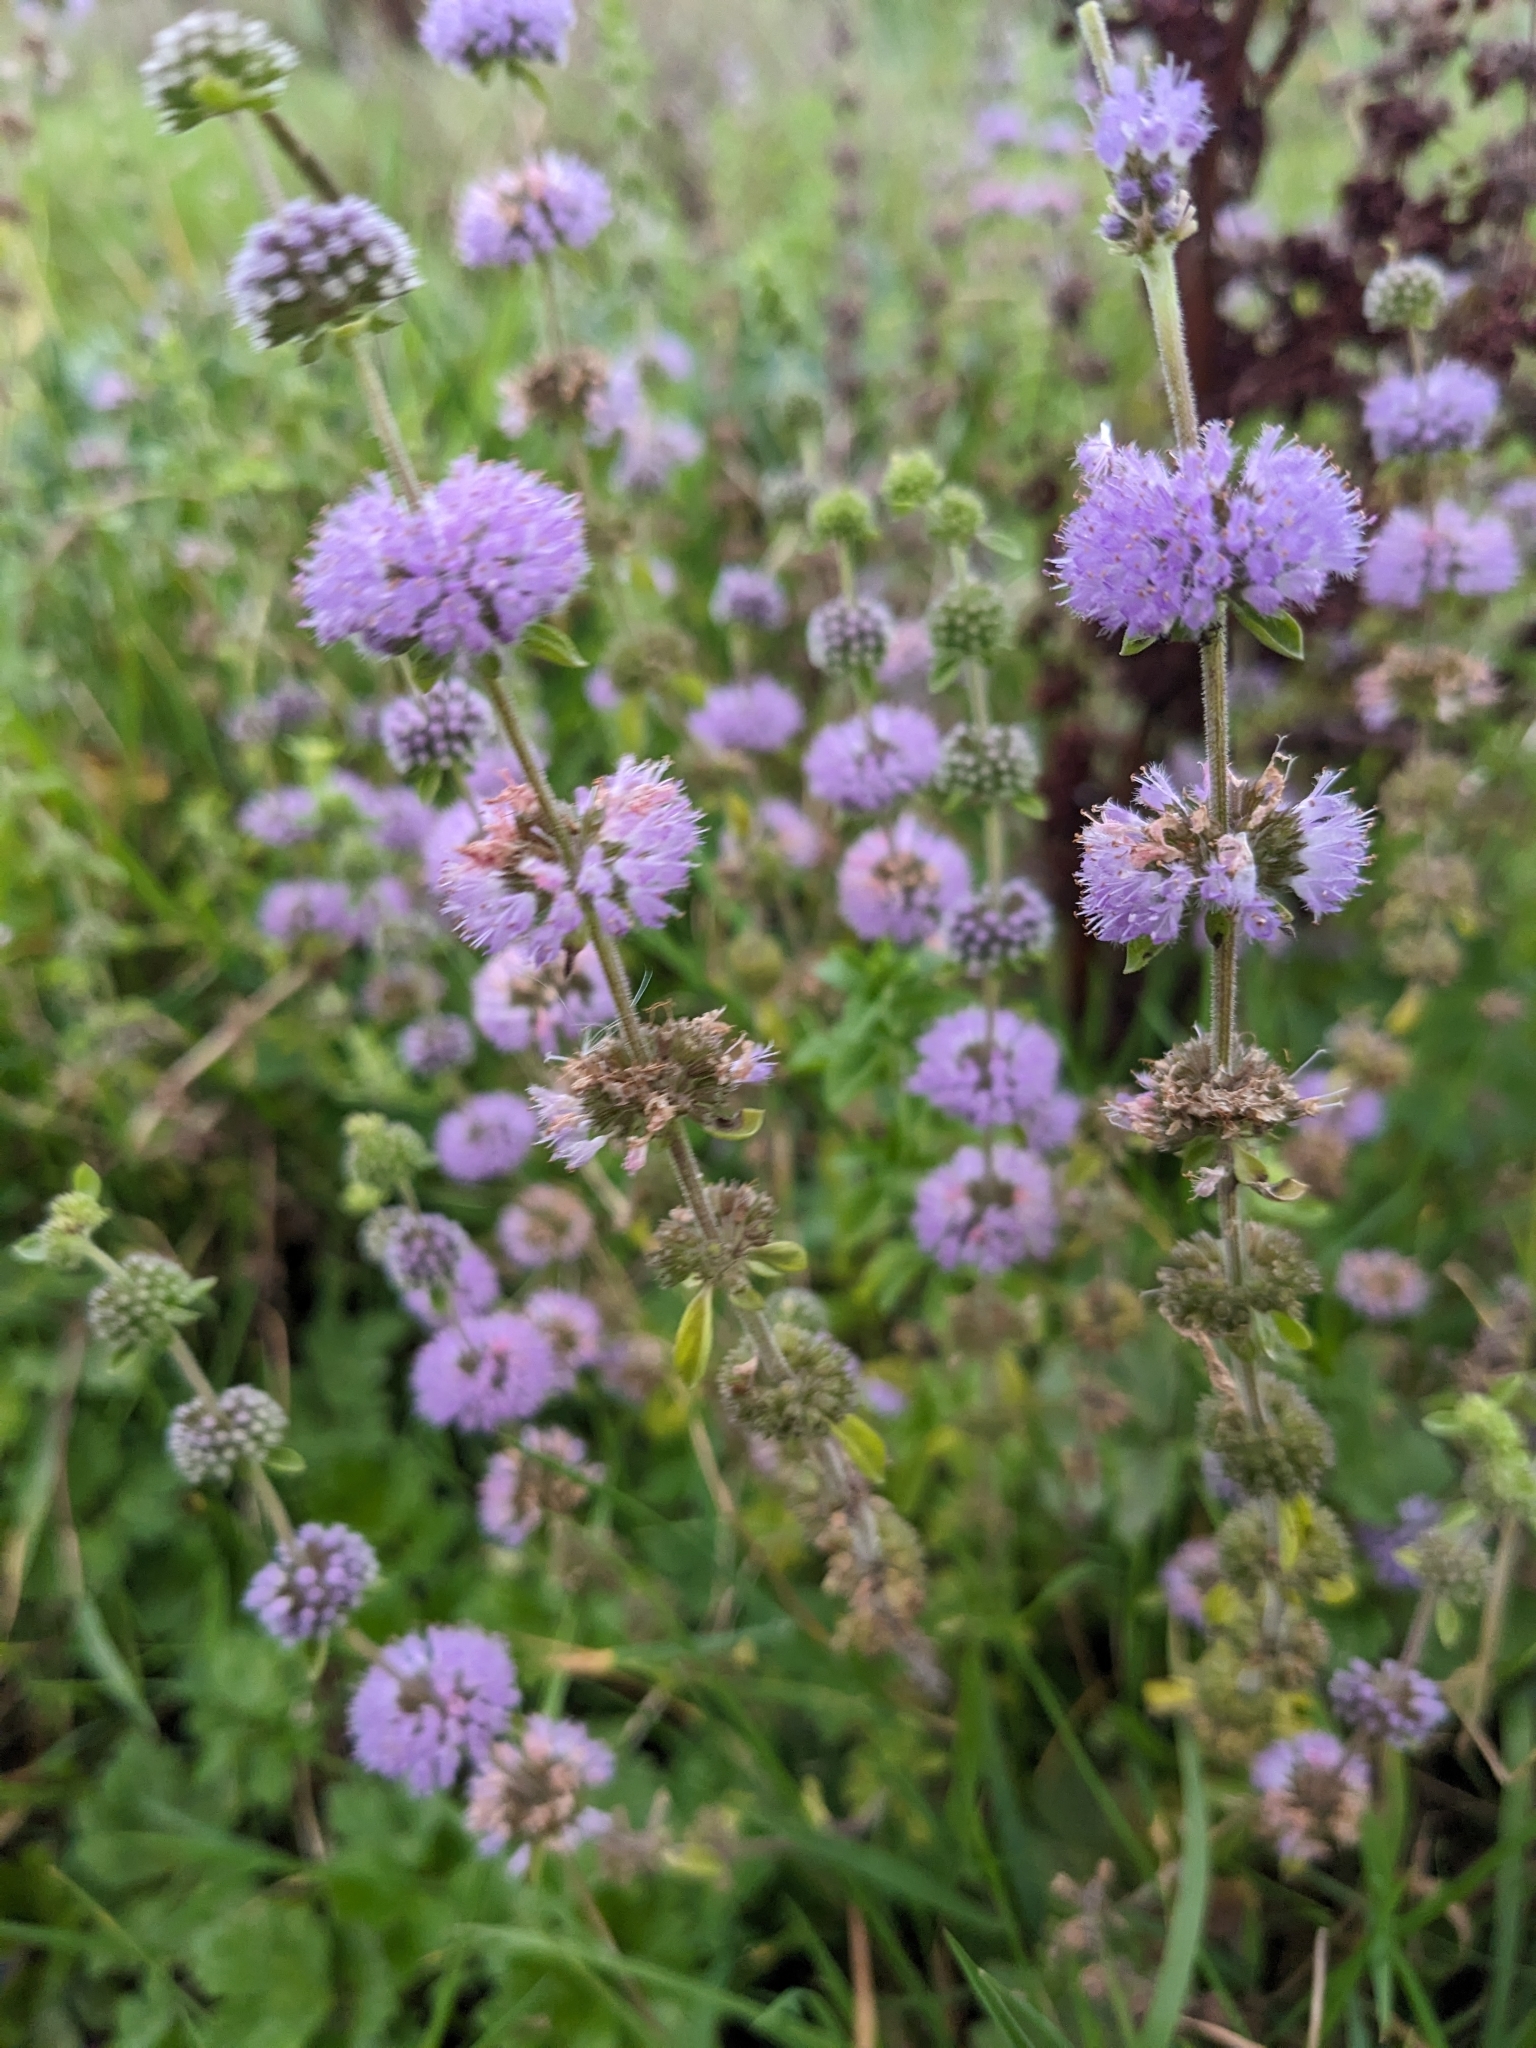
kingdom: Plantae
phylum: Tracheophyta
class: Magnoliopsida
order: Lamiales
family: Lamiaceae
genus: Mentha
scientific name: Mentha pulegium
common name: Pennyroyal
